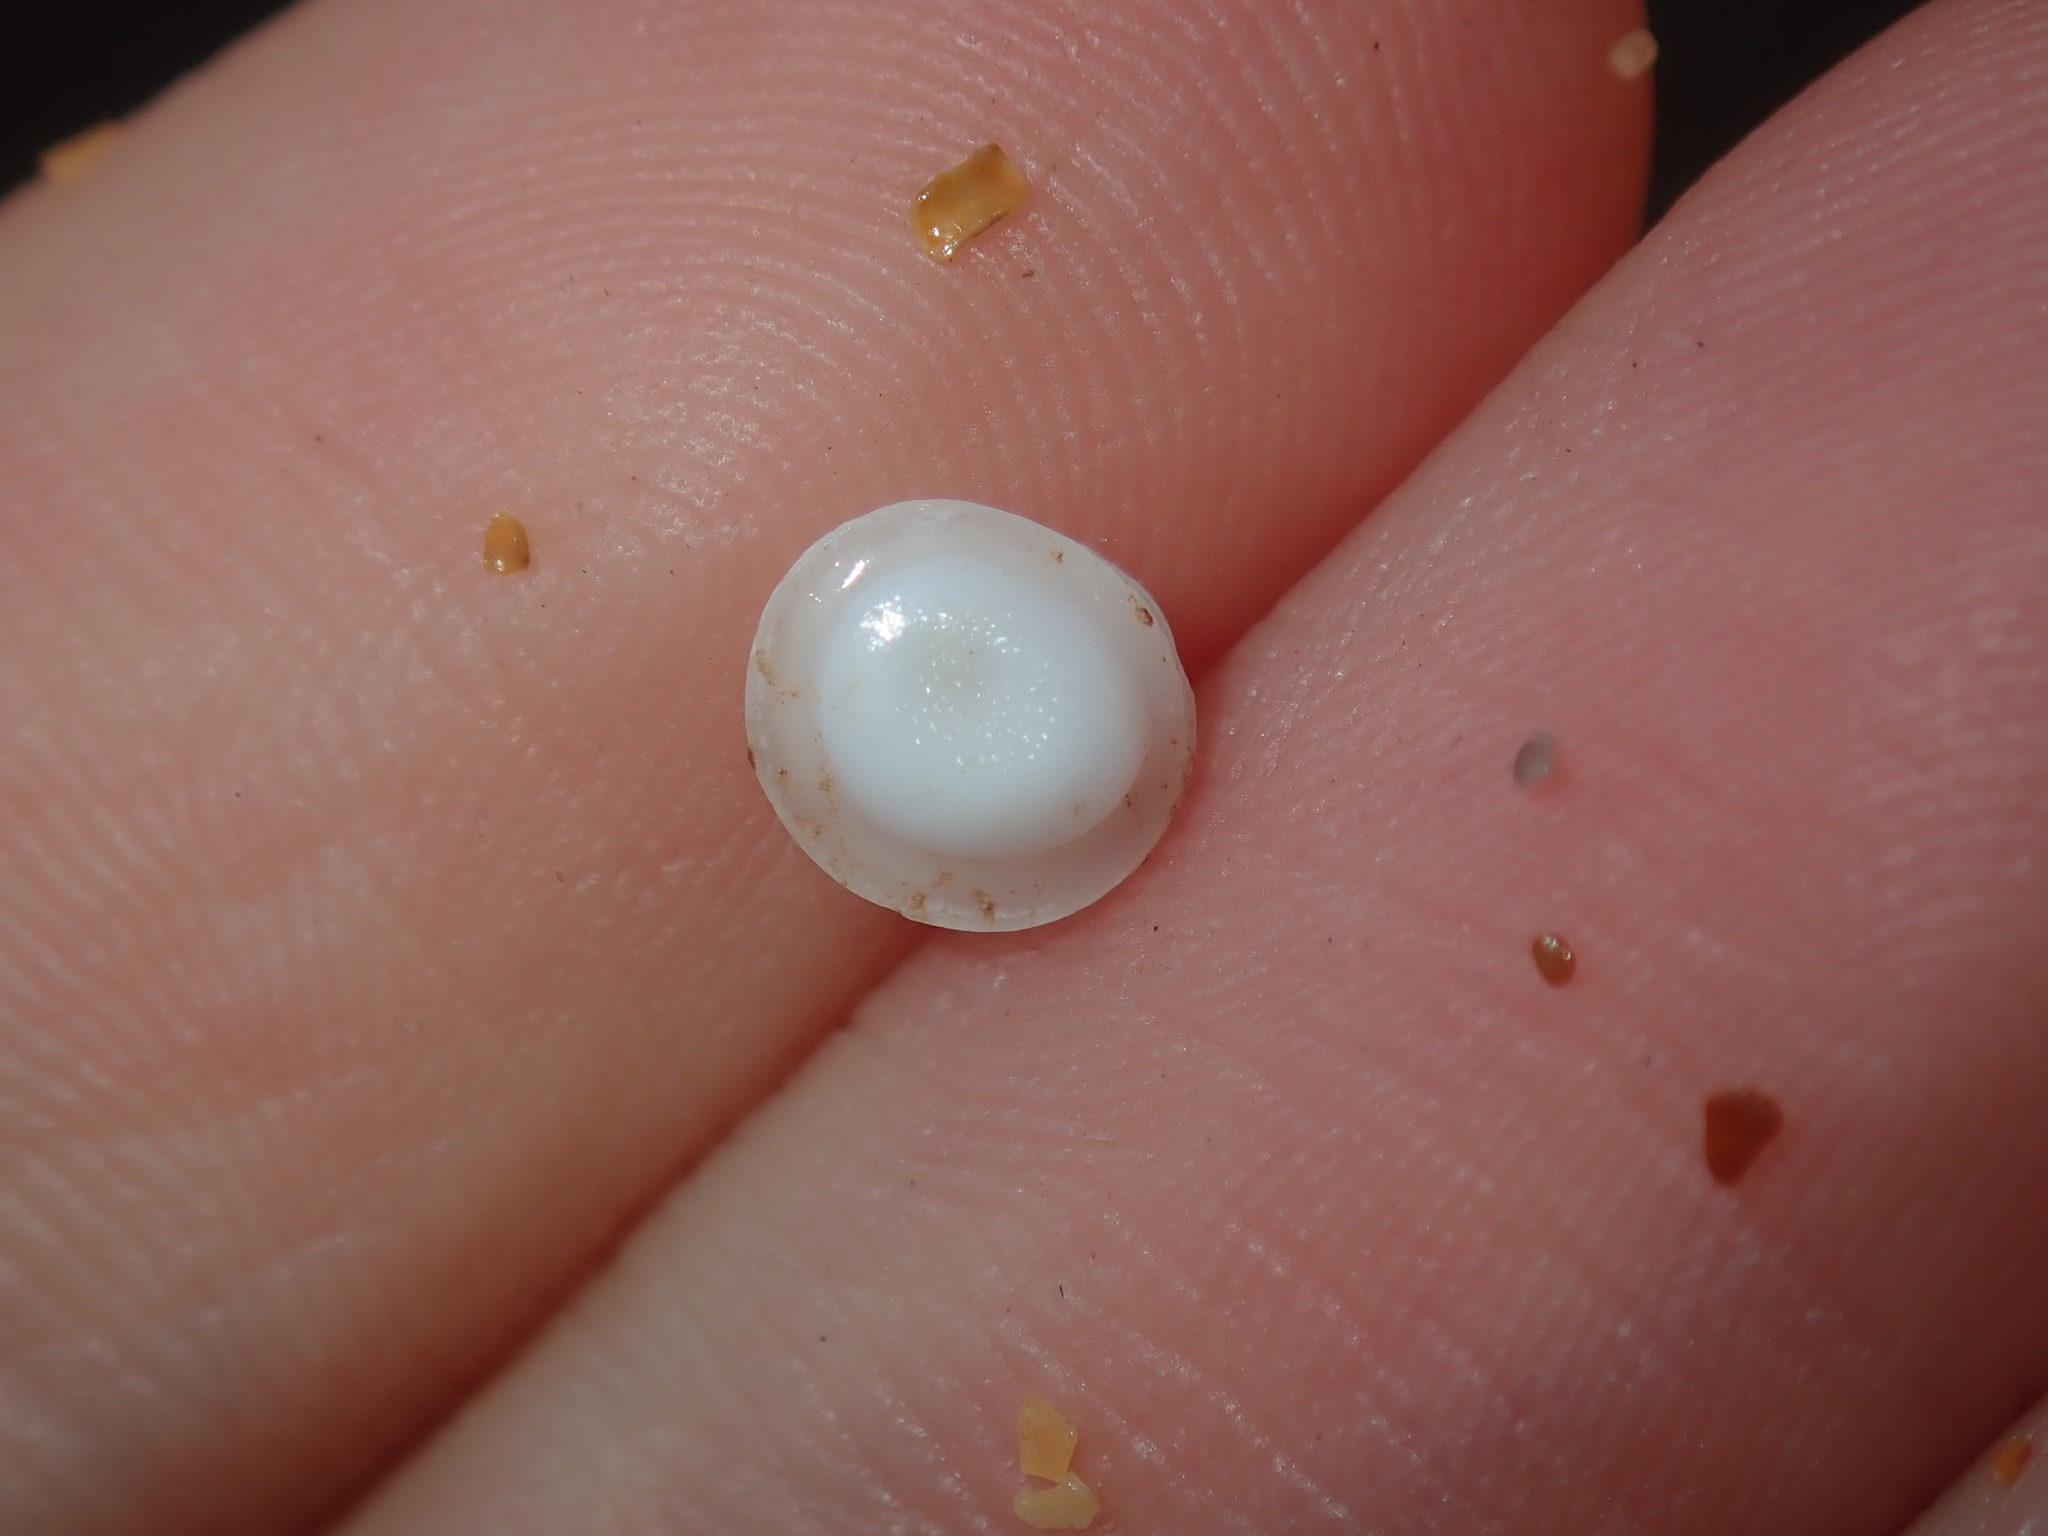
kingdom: Animalia
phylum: Mollusca
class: Gastropoda
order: Trochida
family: Turbinidae
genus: Lunella
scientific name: Lunella undulata
